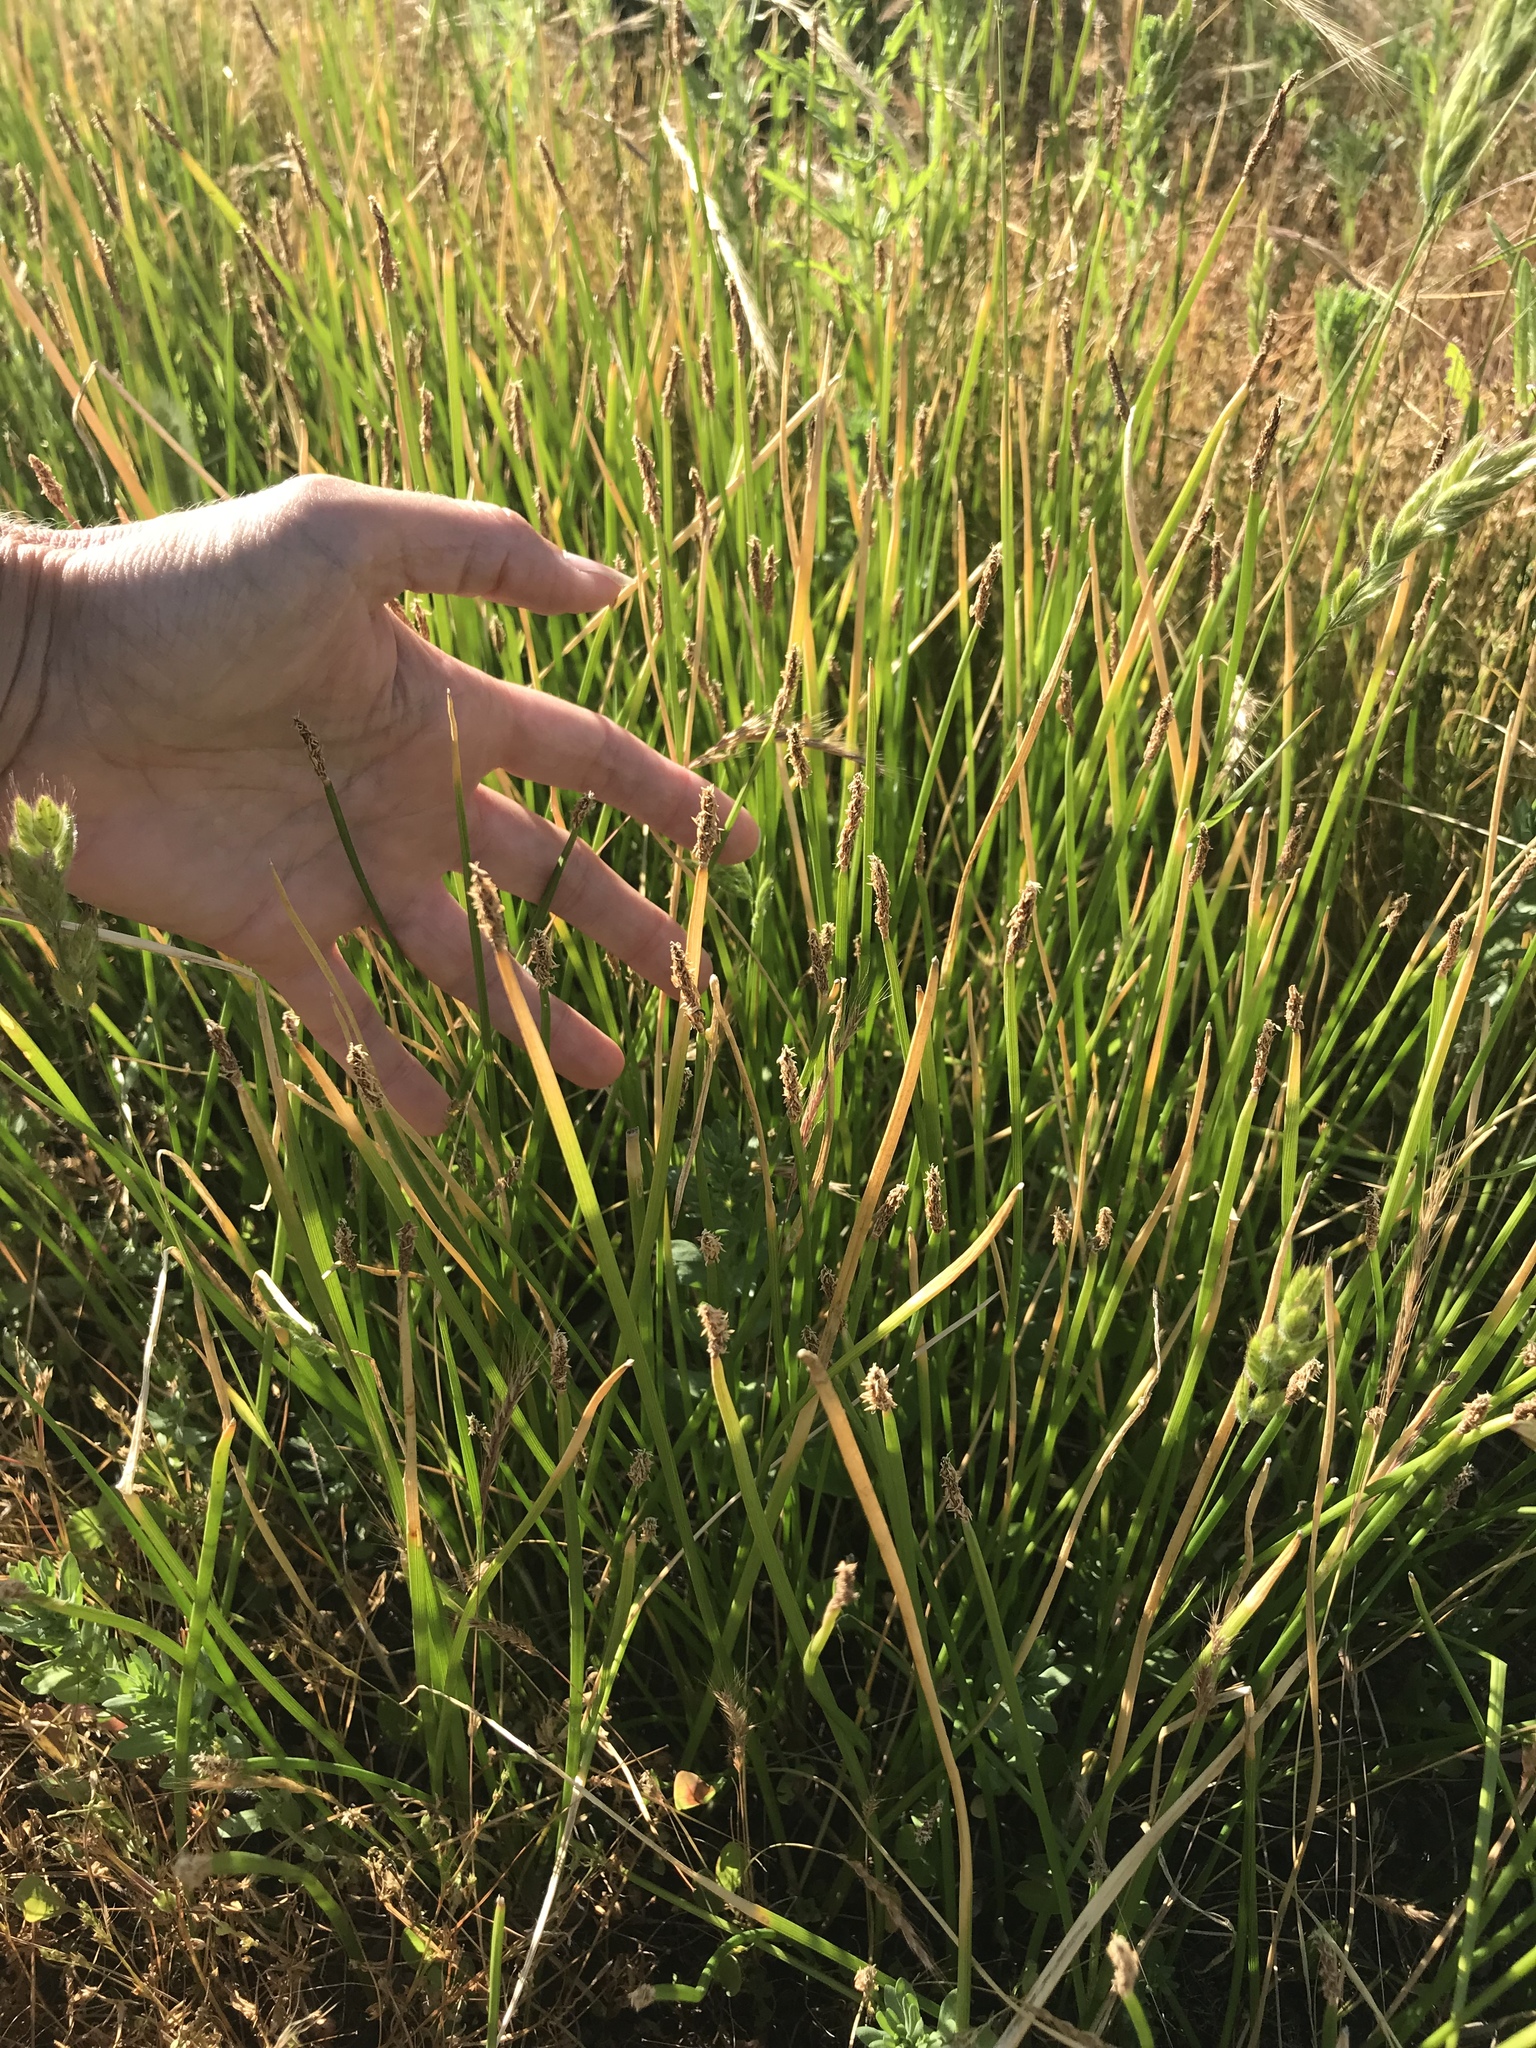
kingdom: Plantae
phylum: Tracheophyta
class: Liliopsida
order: Poales
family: Cyperaceae
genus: Eleocharis
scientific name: Eleocharis palustris
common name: Common spike-rush
